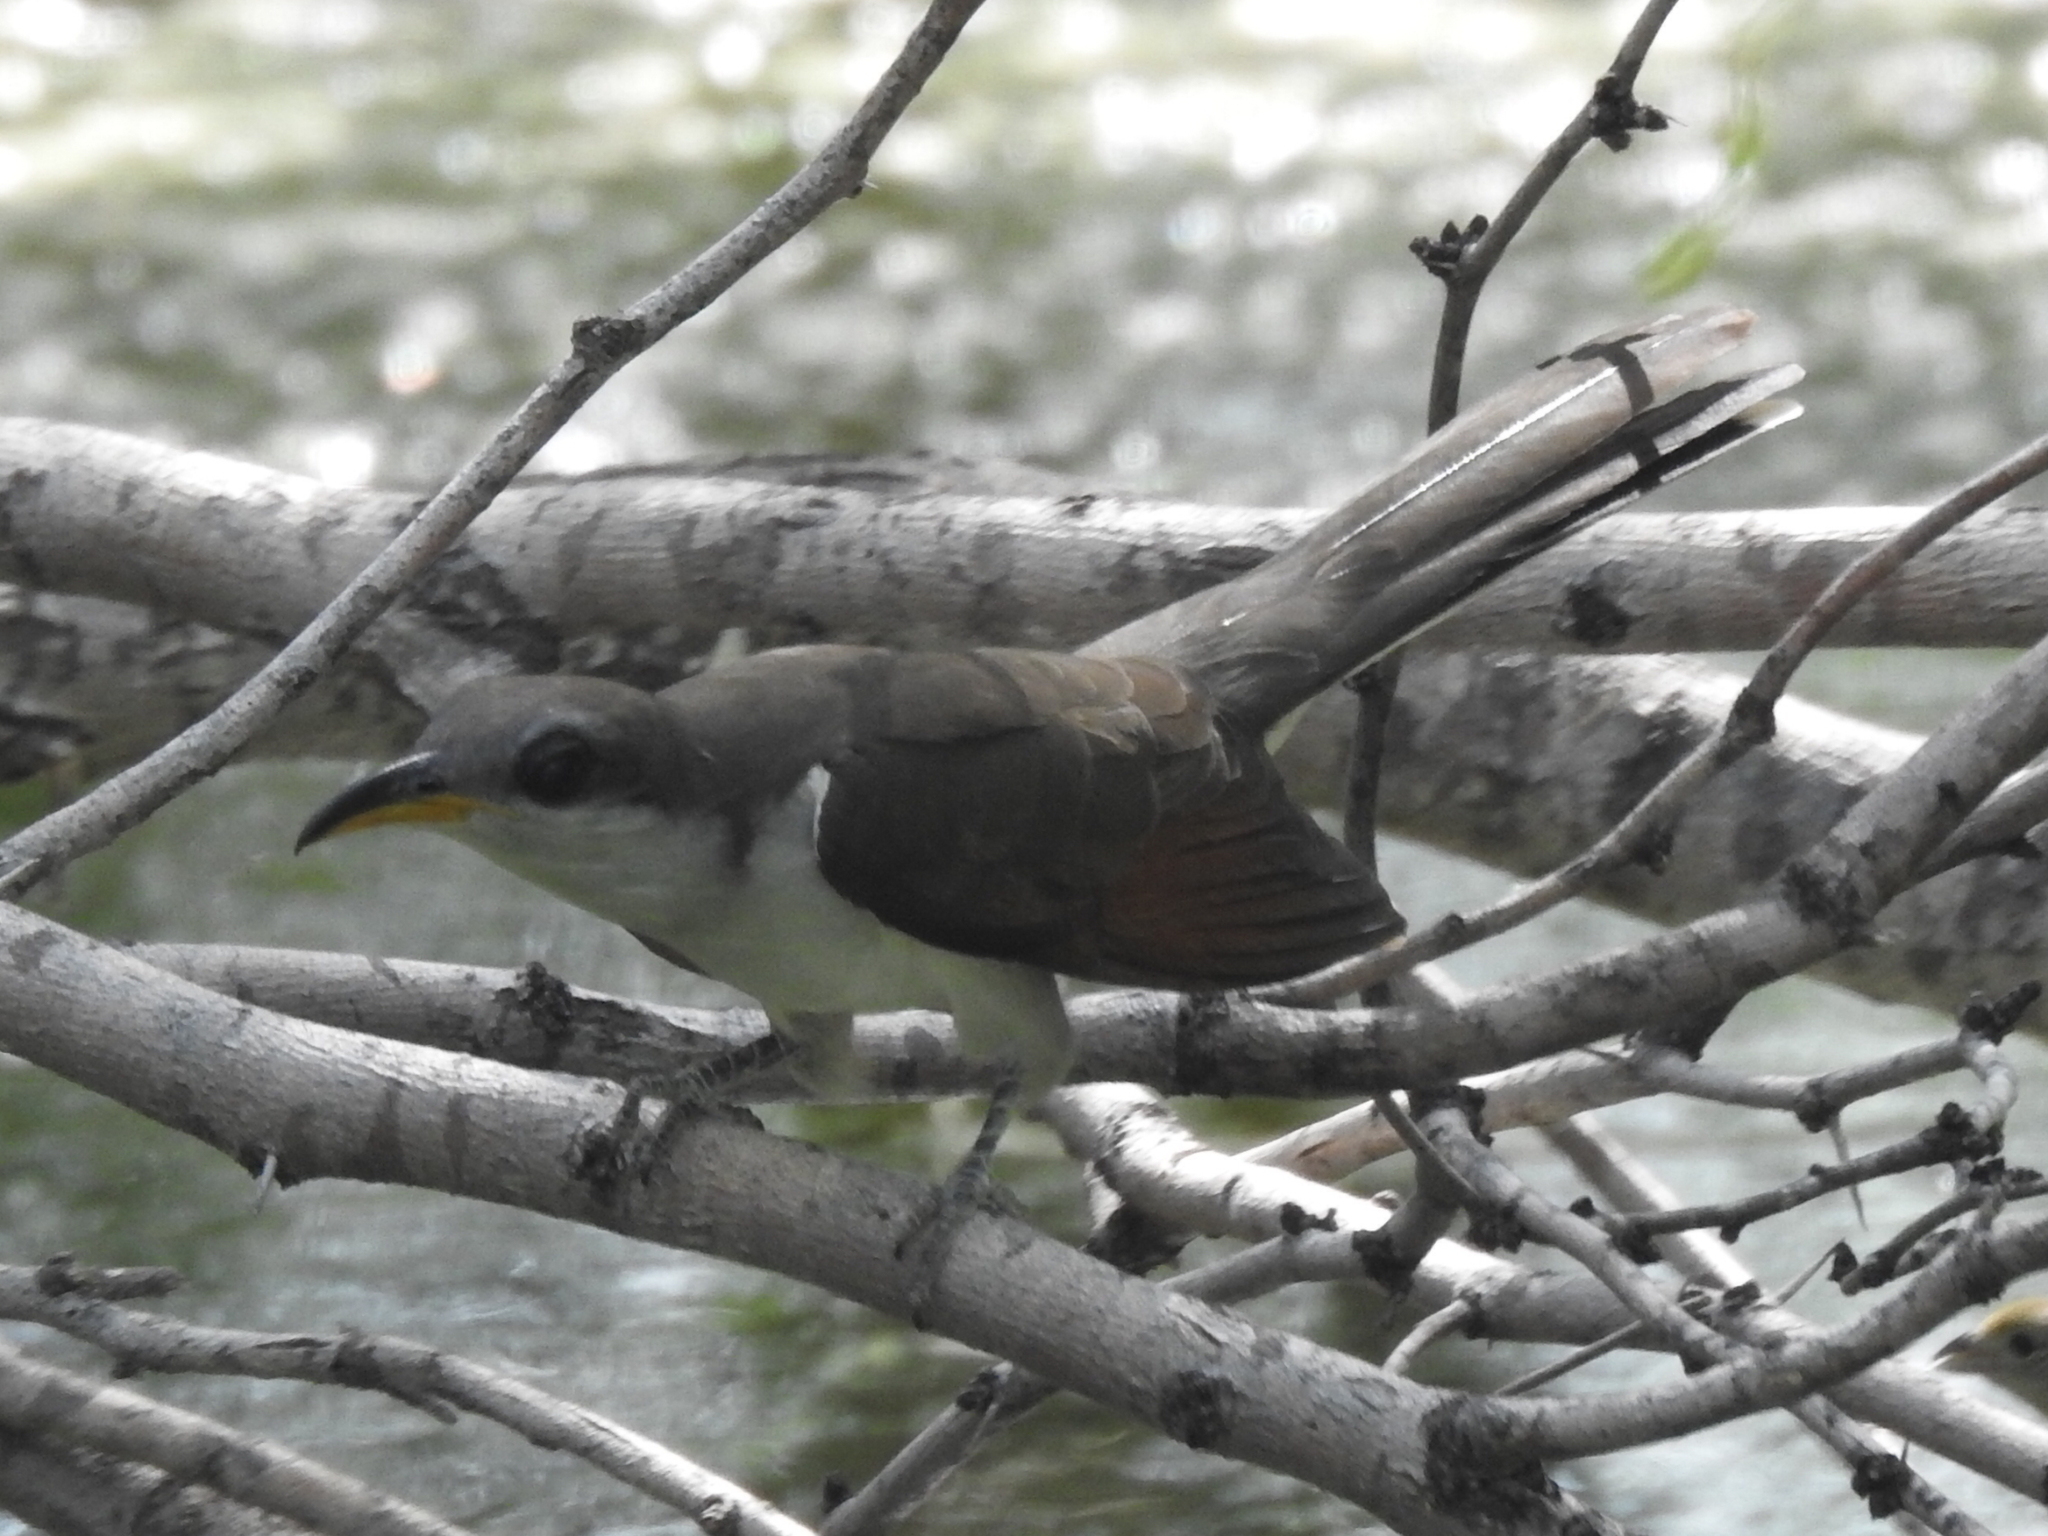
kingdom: Animalia
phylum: Chordata
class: Aves
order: Cuculiformes
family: Cuculidae
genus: Coccyzus
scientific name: Coccyzus americanus
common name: Yellow-billed cuckoo
